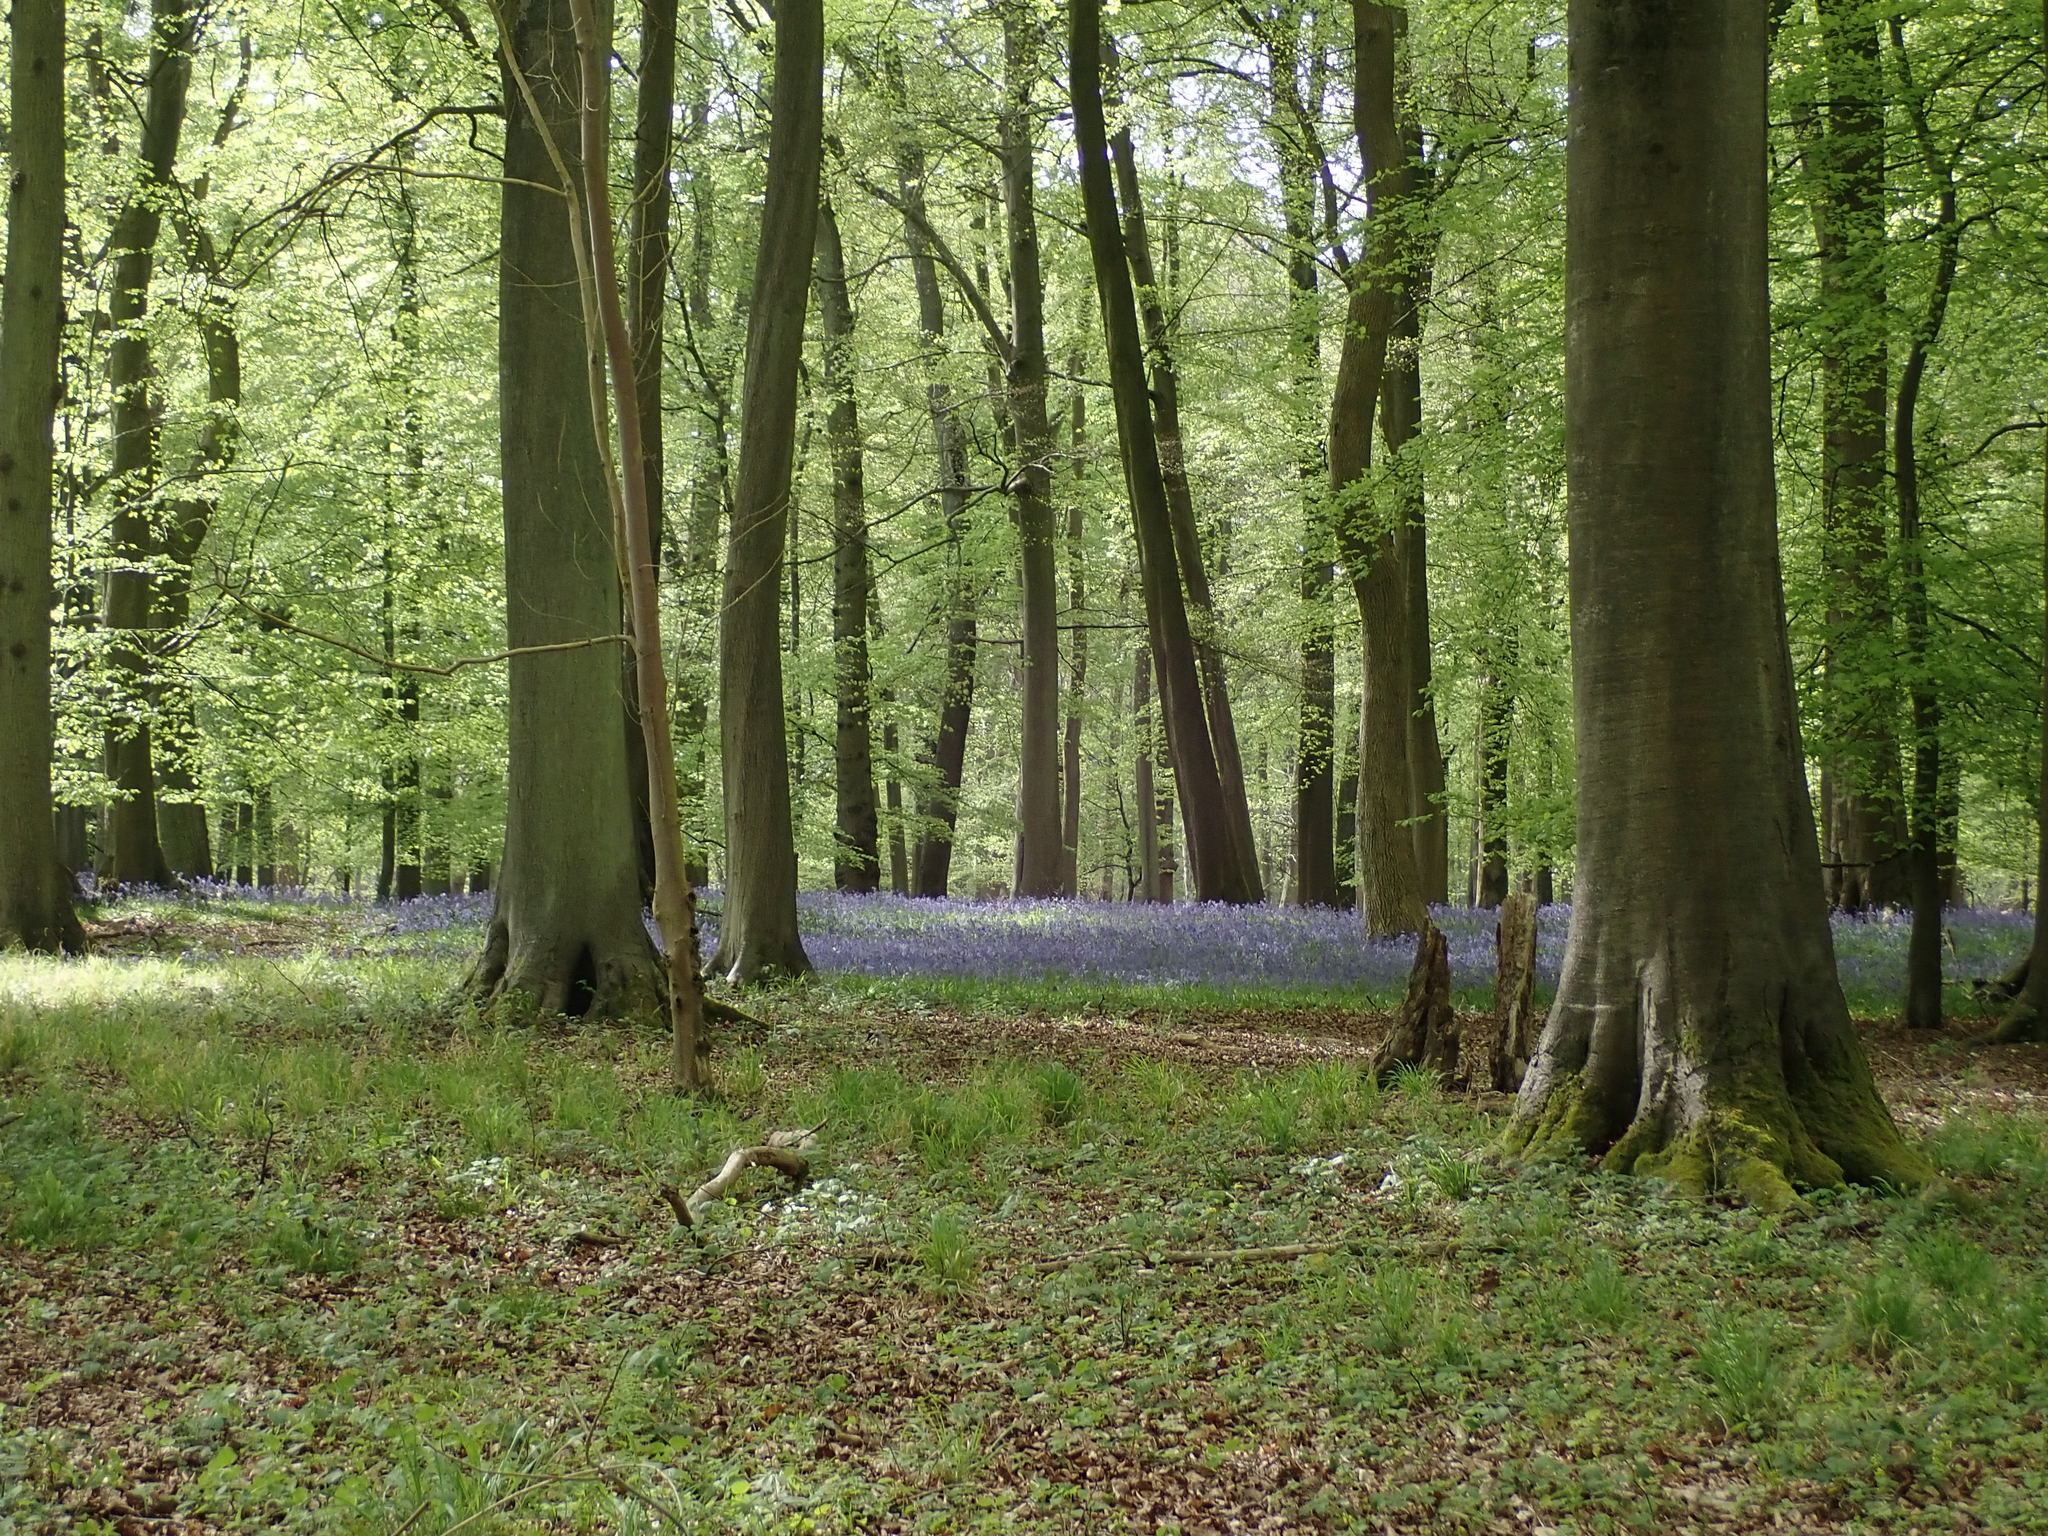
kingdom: Plantae
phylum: Tracheophyta
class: Liliopsida
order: Asparagales
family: Asparagaceae
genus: Hyacinthoides
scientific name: Hyacinthoides non-scripta
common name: Bluebell
